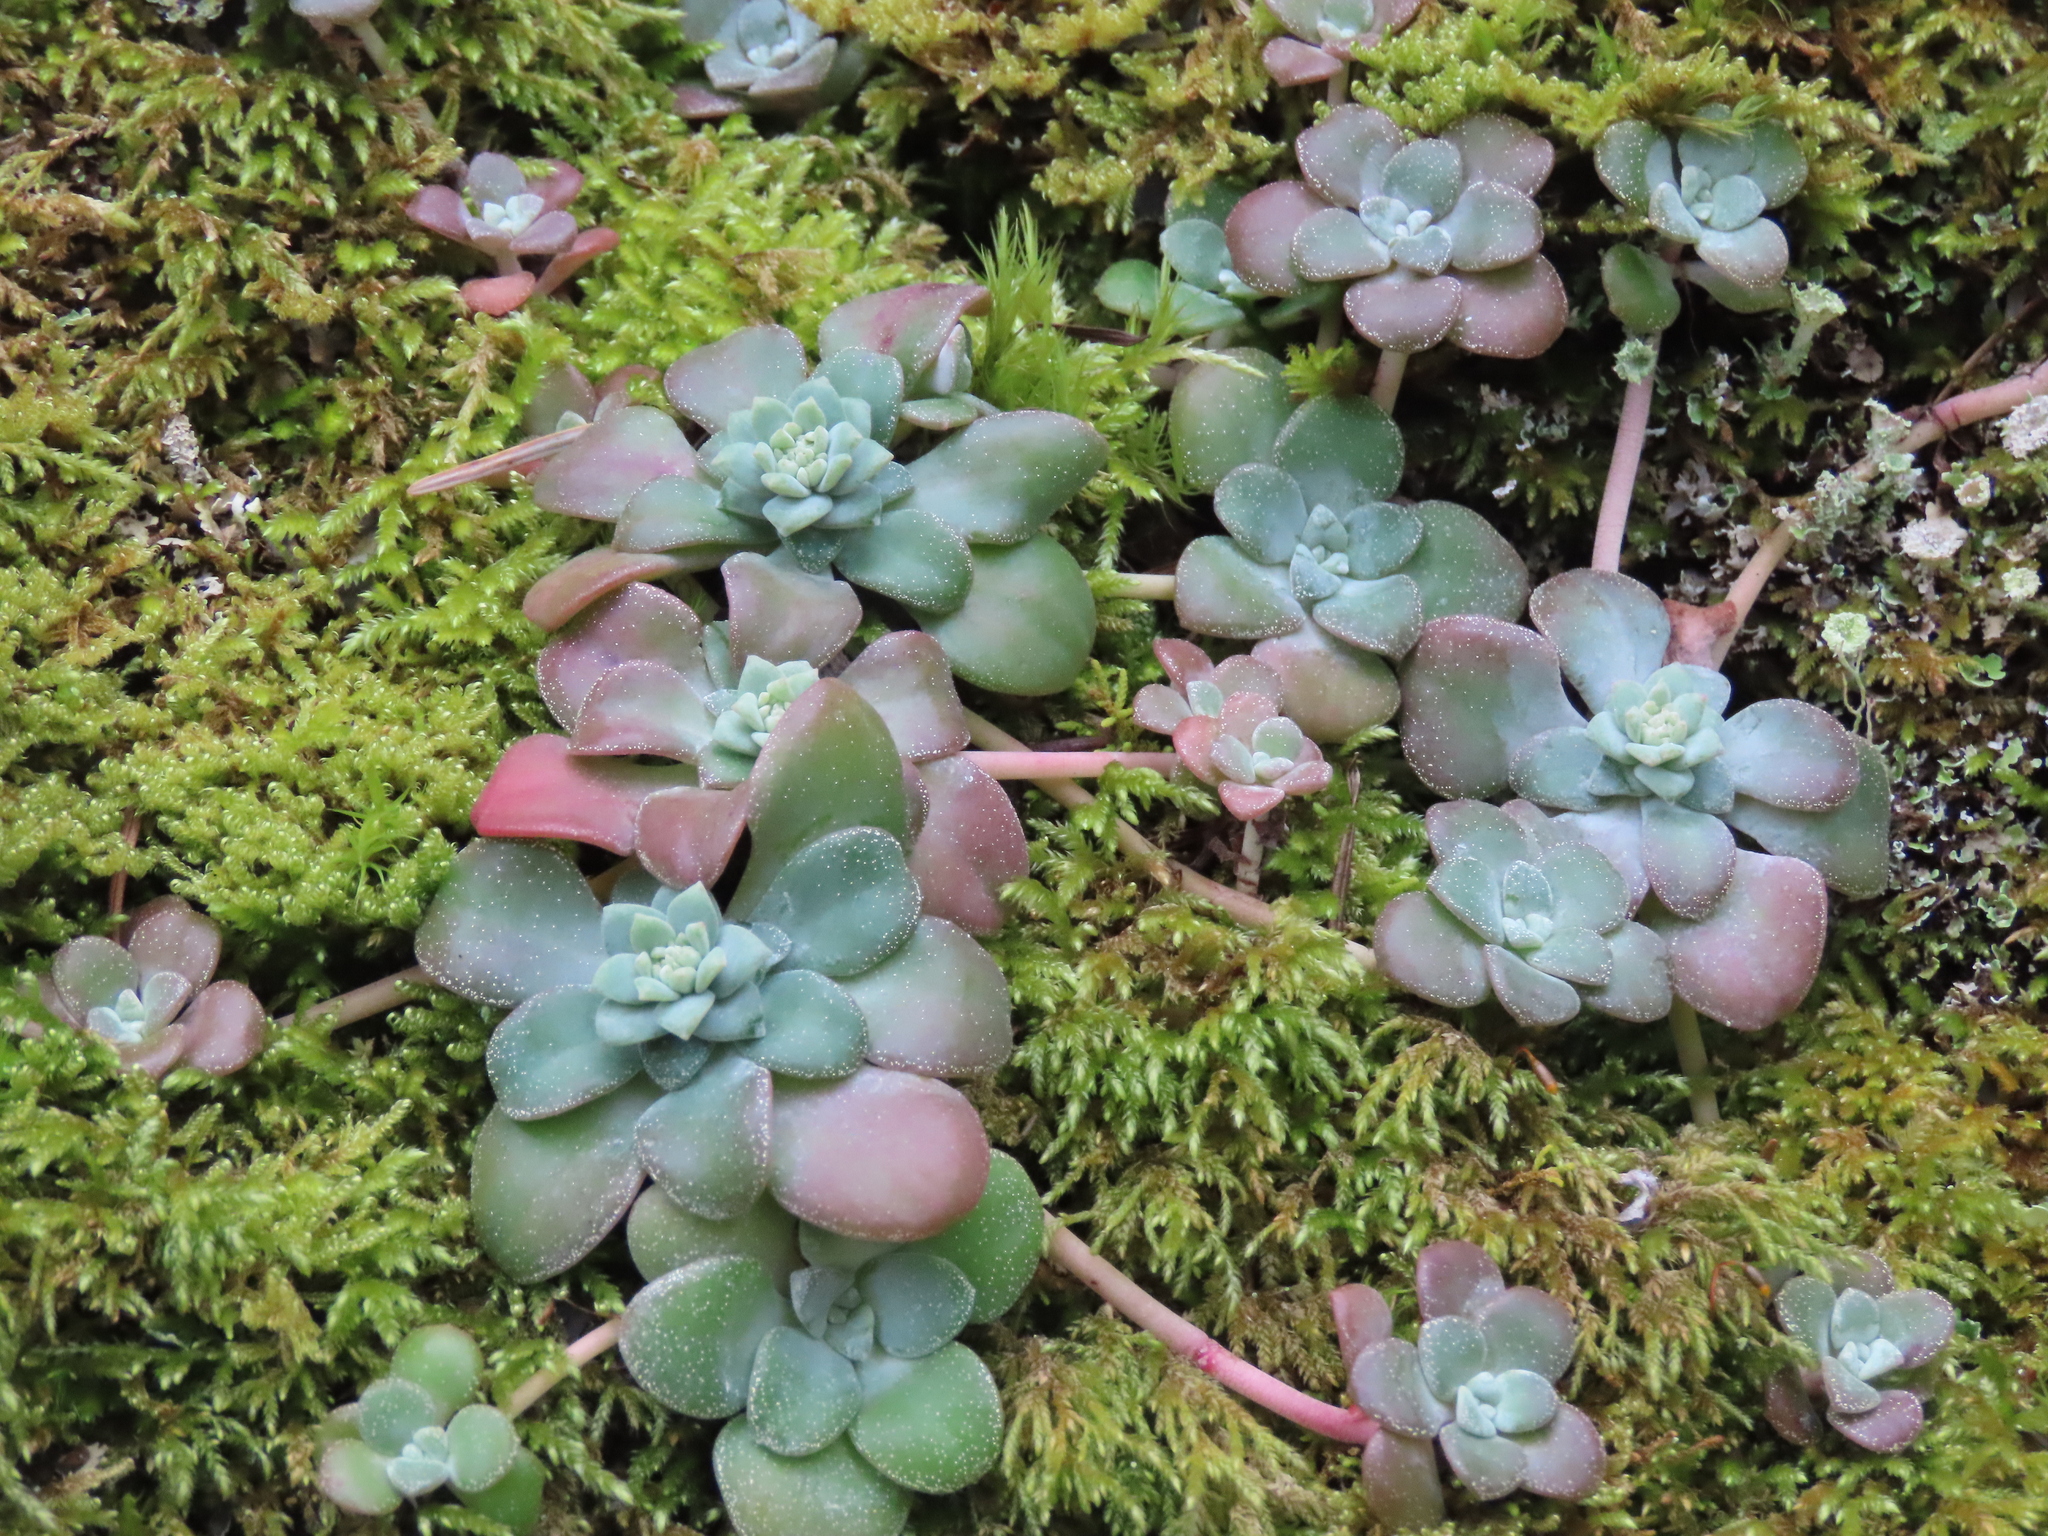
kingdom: Plantae
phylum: Tracheophyta
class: Magnoliopsida
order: Saxifragales
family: Crassulaceae
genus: Sedum
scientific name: Sedum spathulifolium
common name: Colorado stonecrop
